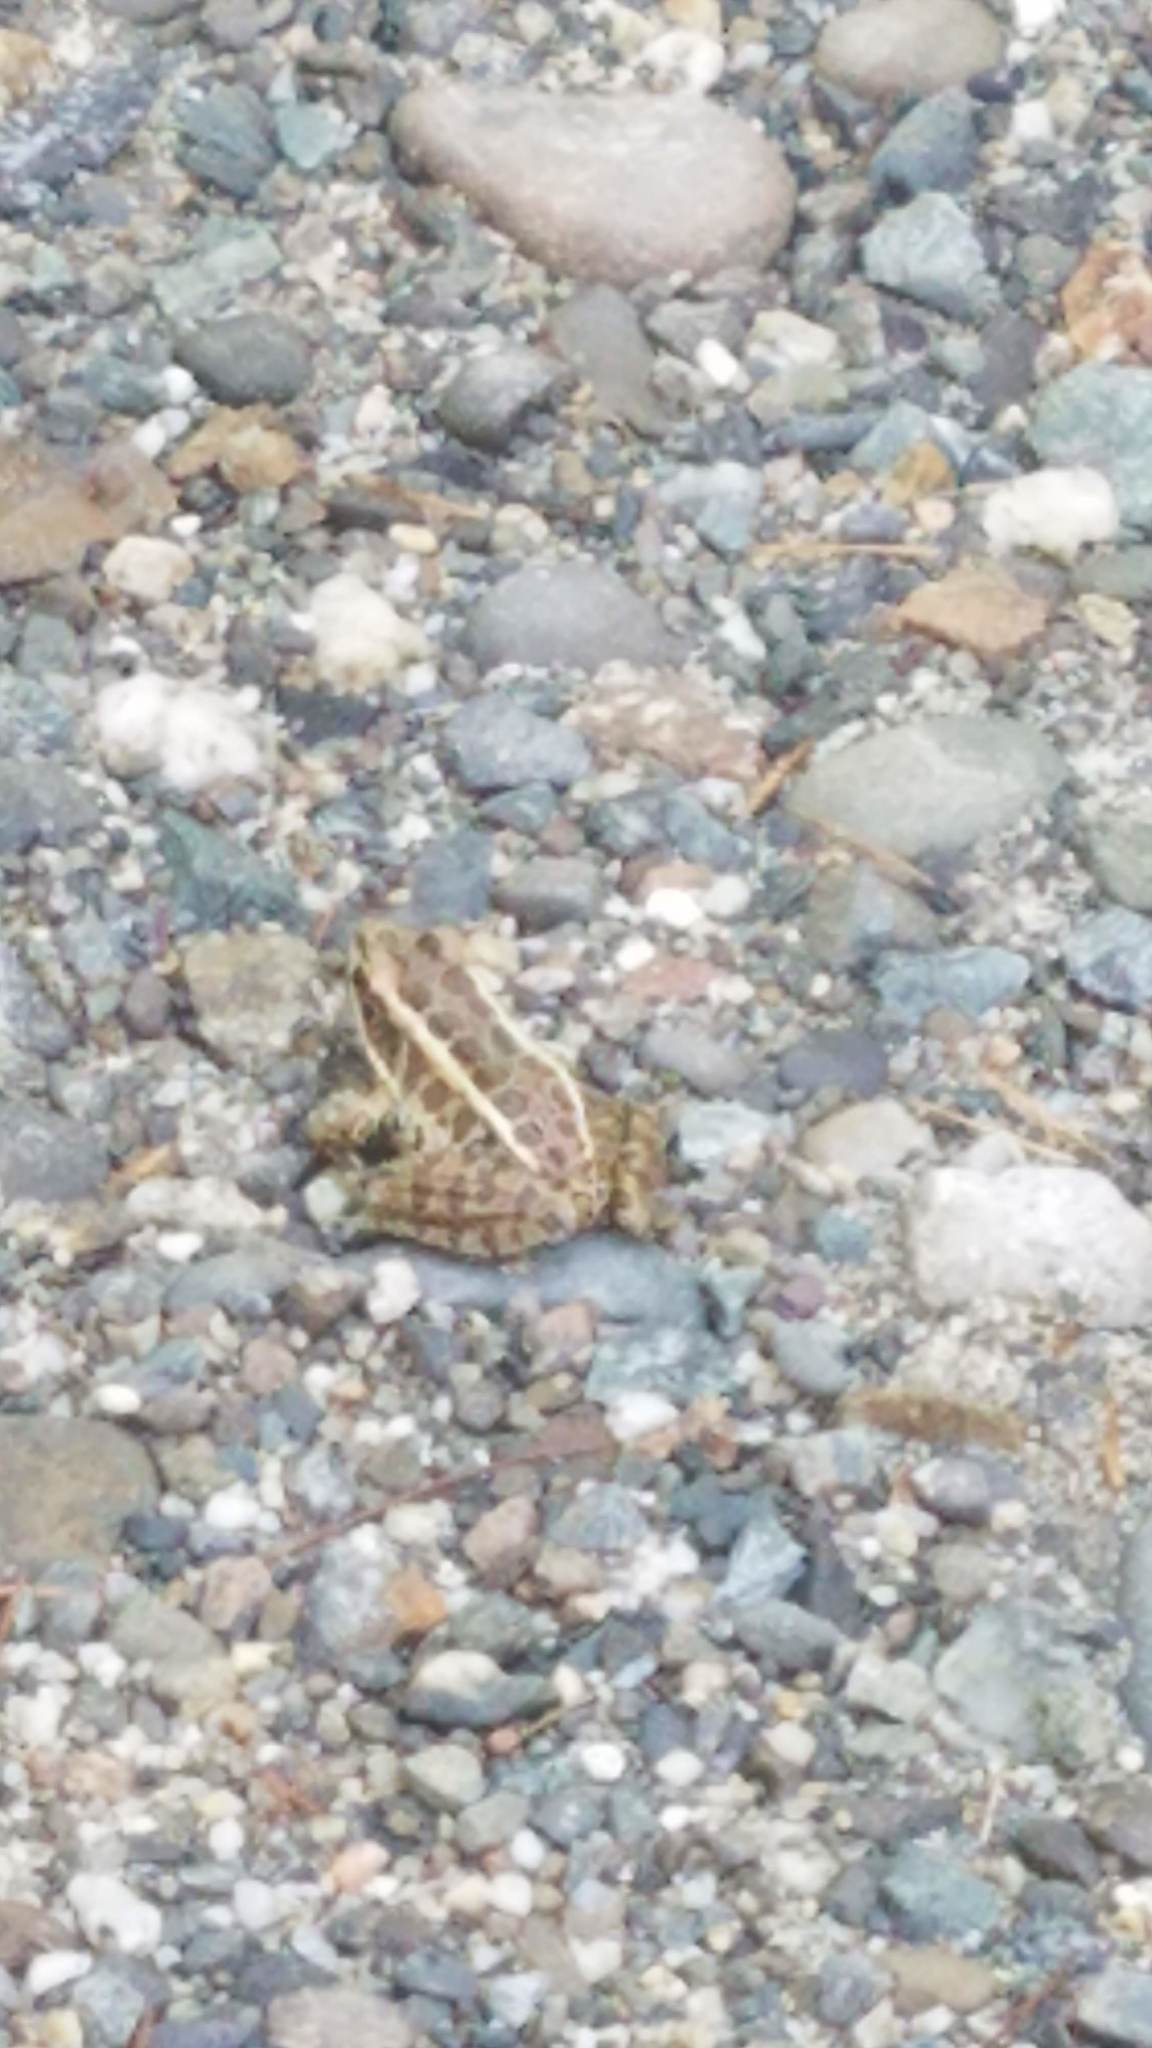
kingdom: Animalia
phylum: Chordata
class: Amphibia
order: Anura
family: Ranidae
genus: Lithobates
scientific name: Lithobates palustris
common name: Pickerel frog
